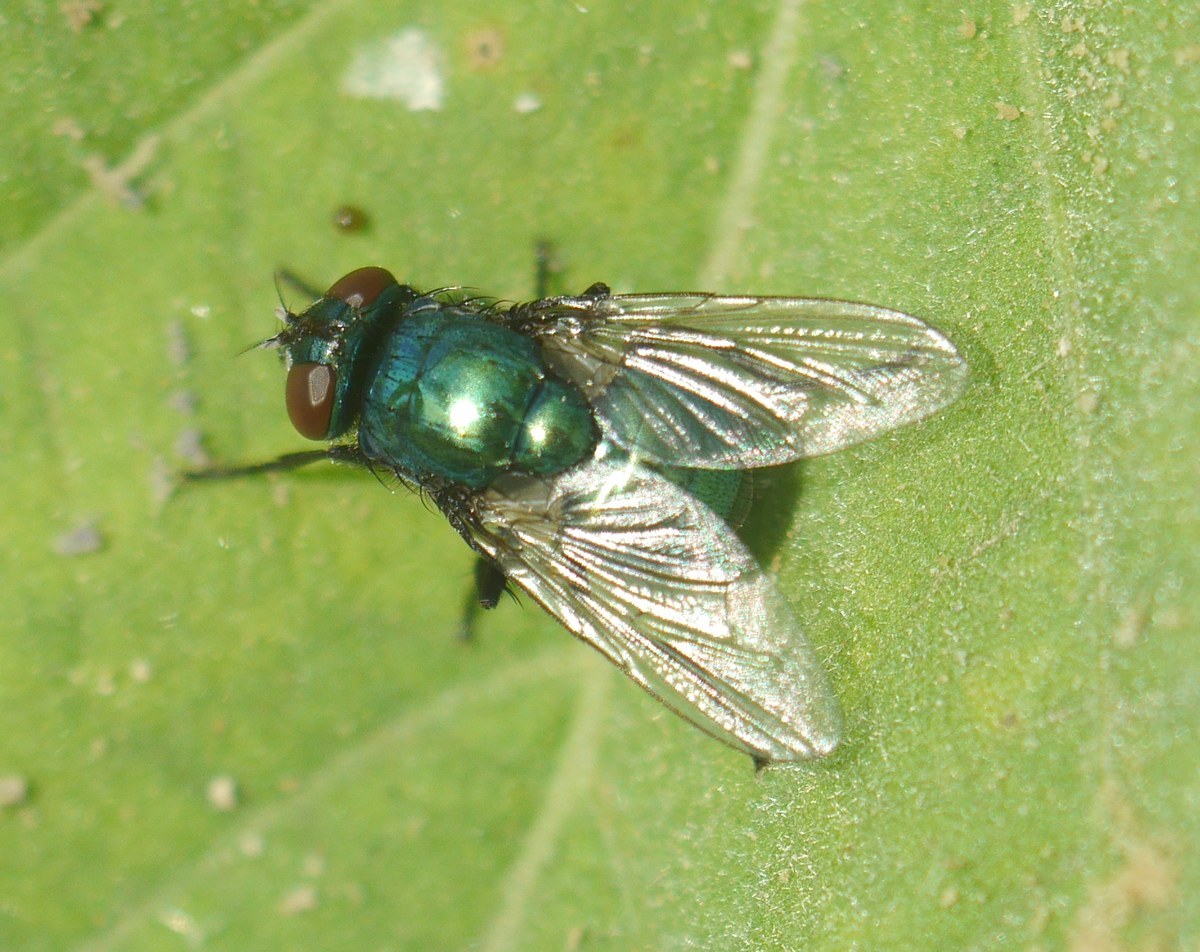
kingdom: Animalia
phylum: Arthropoda
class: Insecta
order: Diptera
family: Muscidae
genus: Neomyia
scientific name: Neomyia cornicina
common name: House fly
